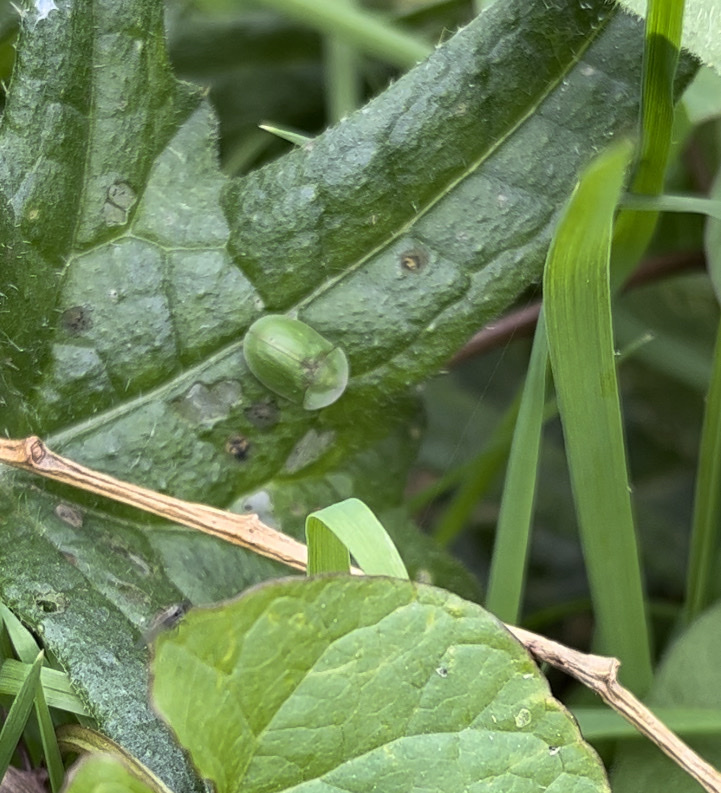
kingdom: Animalia
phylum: Arthropoda
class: Insecta
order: Coleoptera
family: Chrysomelidae
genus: Cassida
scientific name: Cassida viridis
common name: Green tortoise beetle
